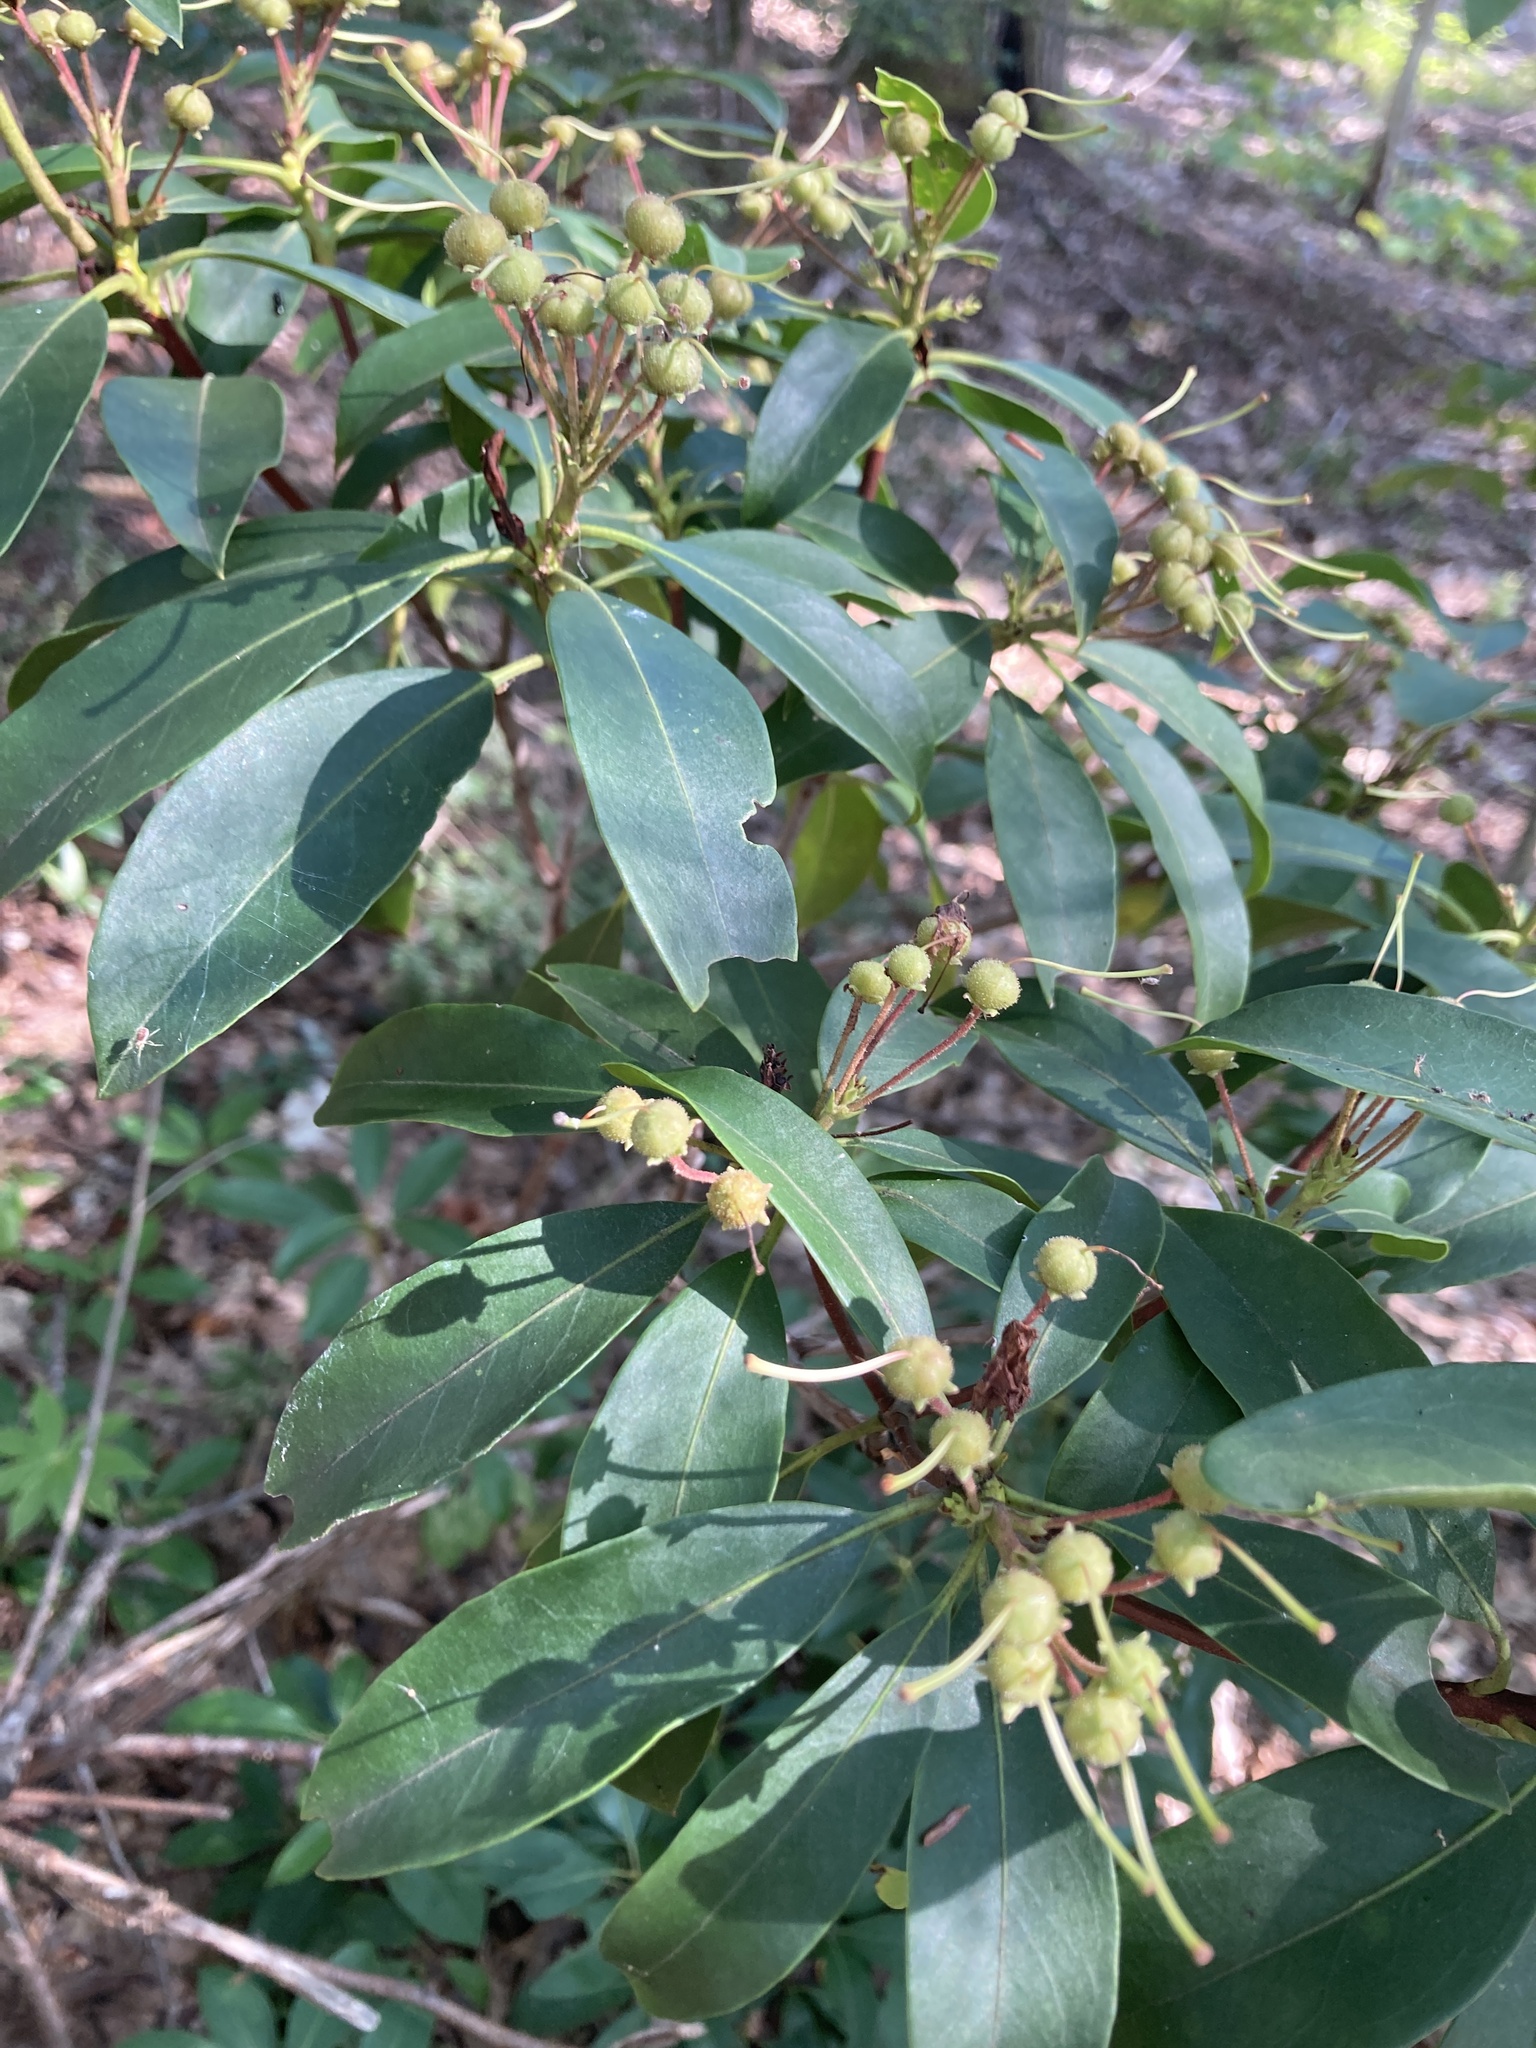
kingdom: Plantae
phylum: Tracheophyta
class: Magnoliopsida
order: Ericales
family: Ericaceae
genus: Kalmia
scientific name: Kalmia latifolia
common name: Mountain-laurel
